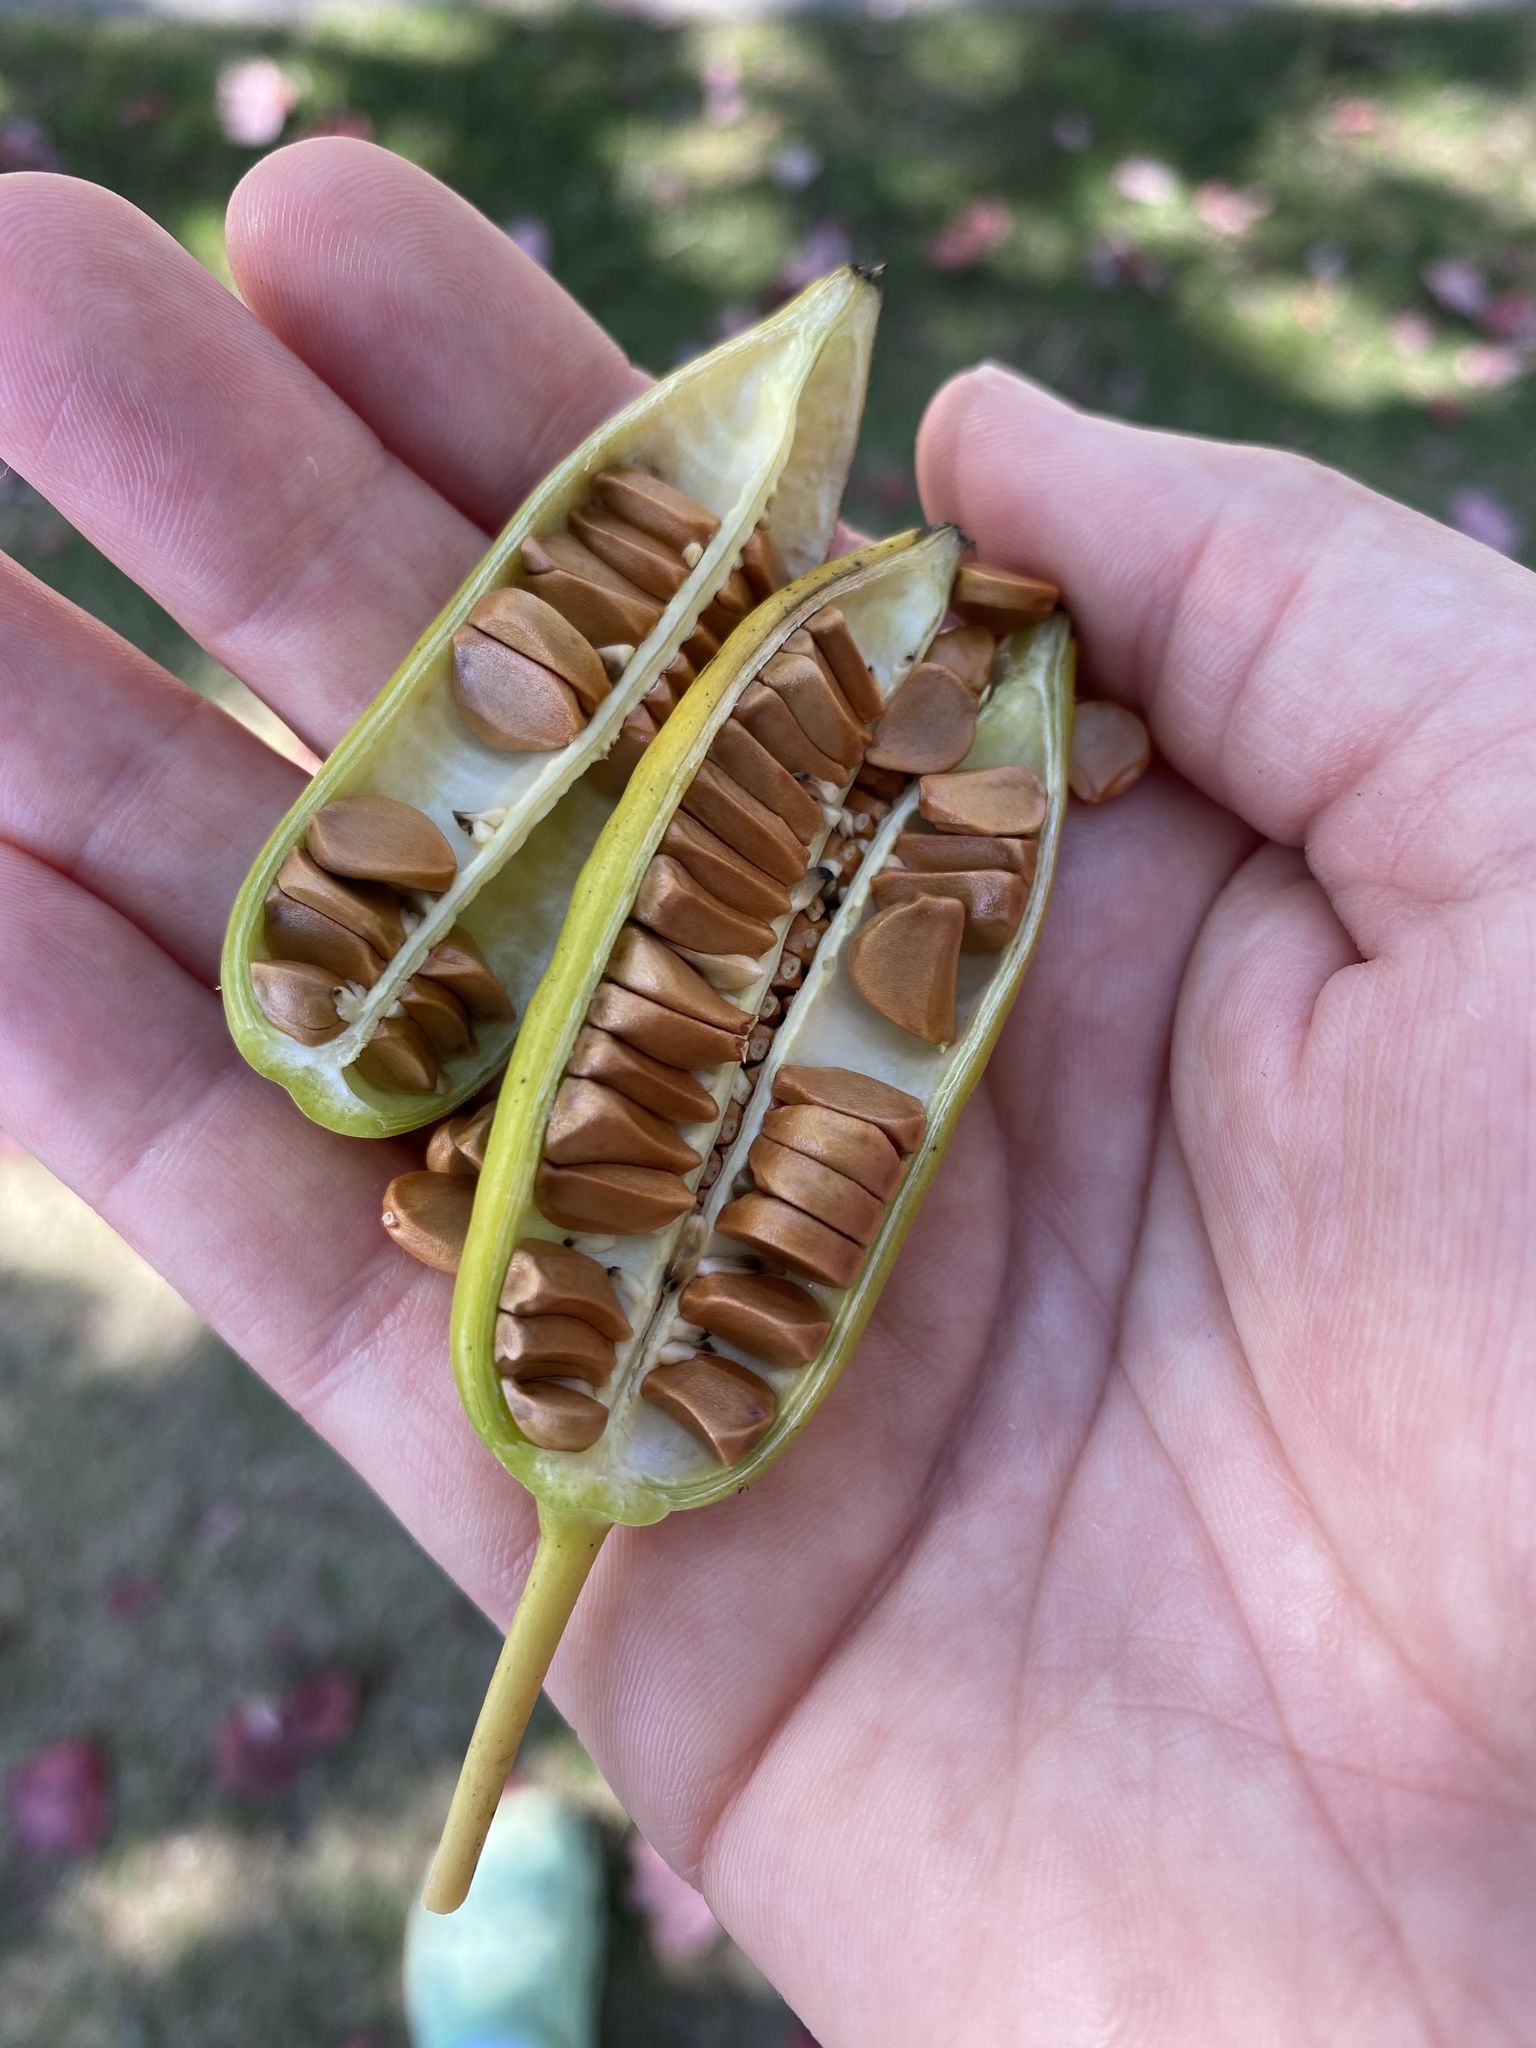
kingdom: Plantae
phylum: Tracheophyta
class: Liliopsida
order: Asparagales
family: Iridaceae
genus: Iris
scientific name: Iris pseudacorus
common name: Yellow flag
